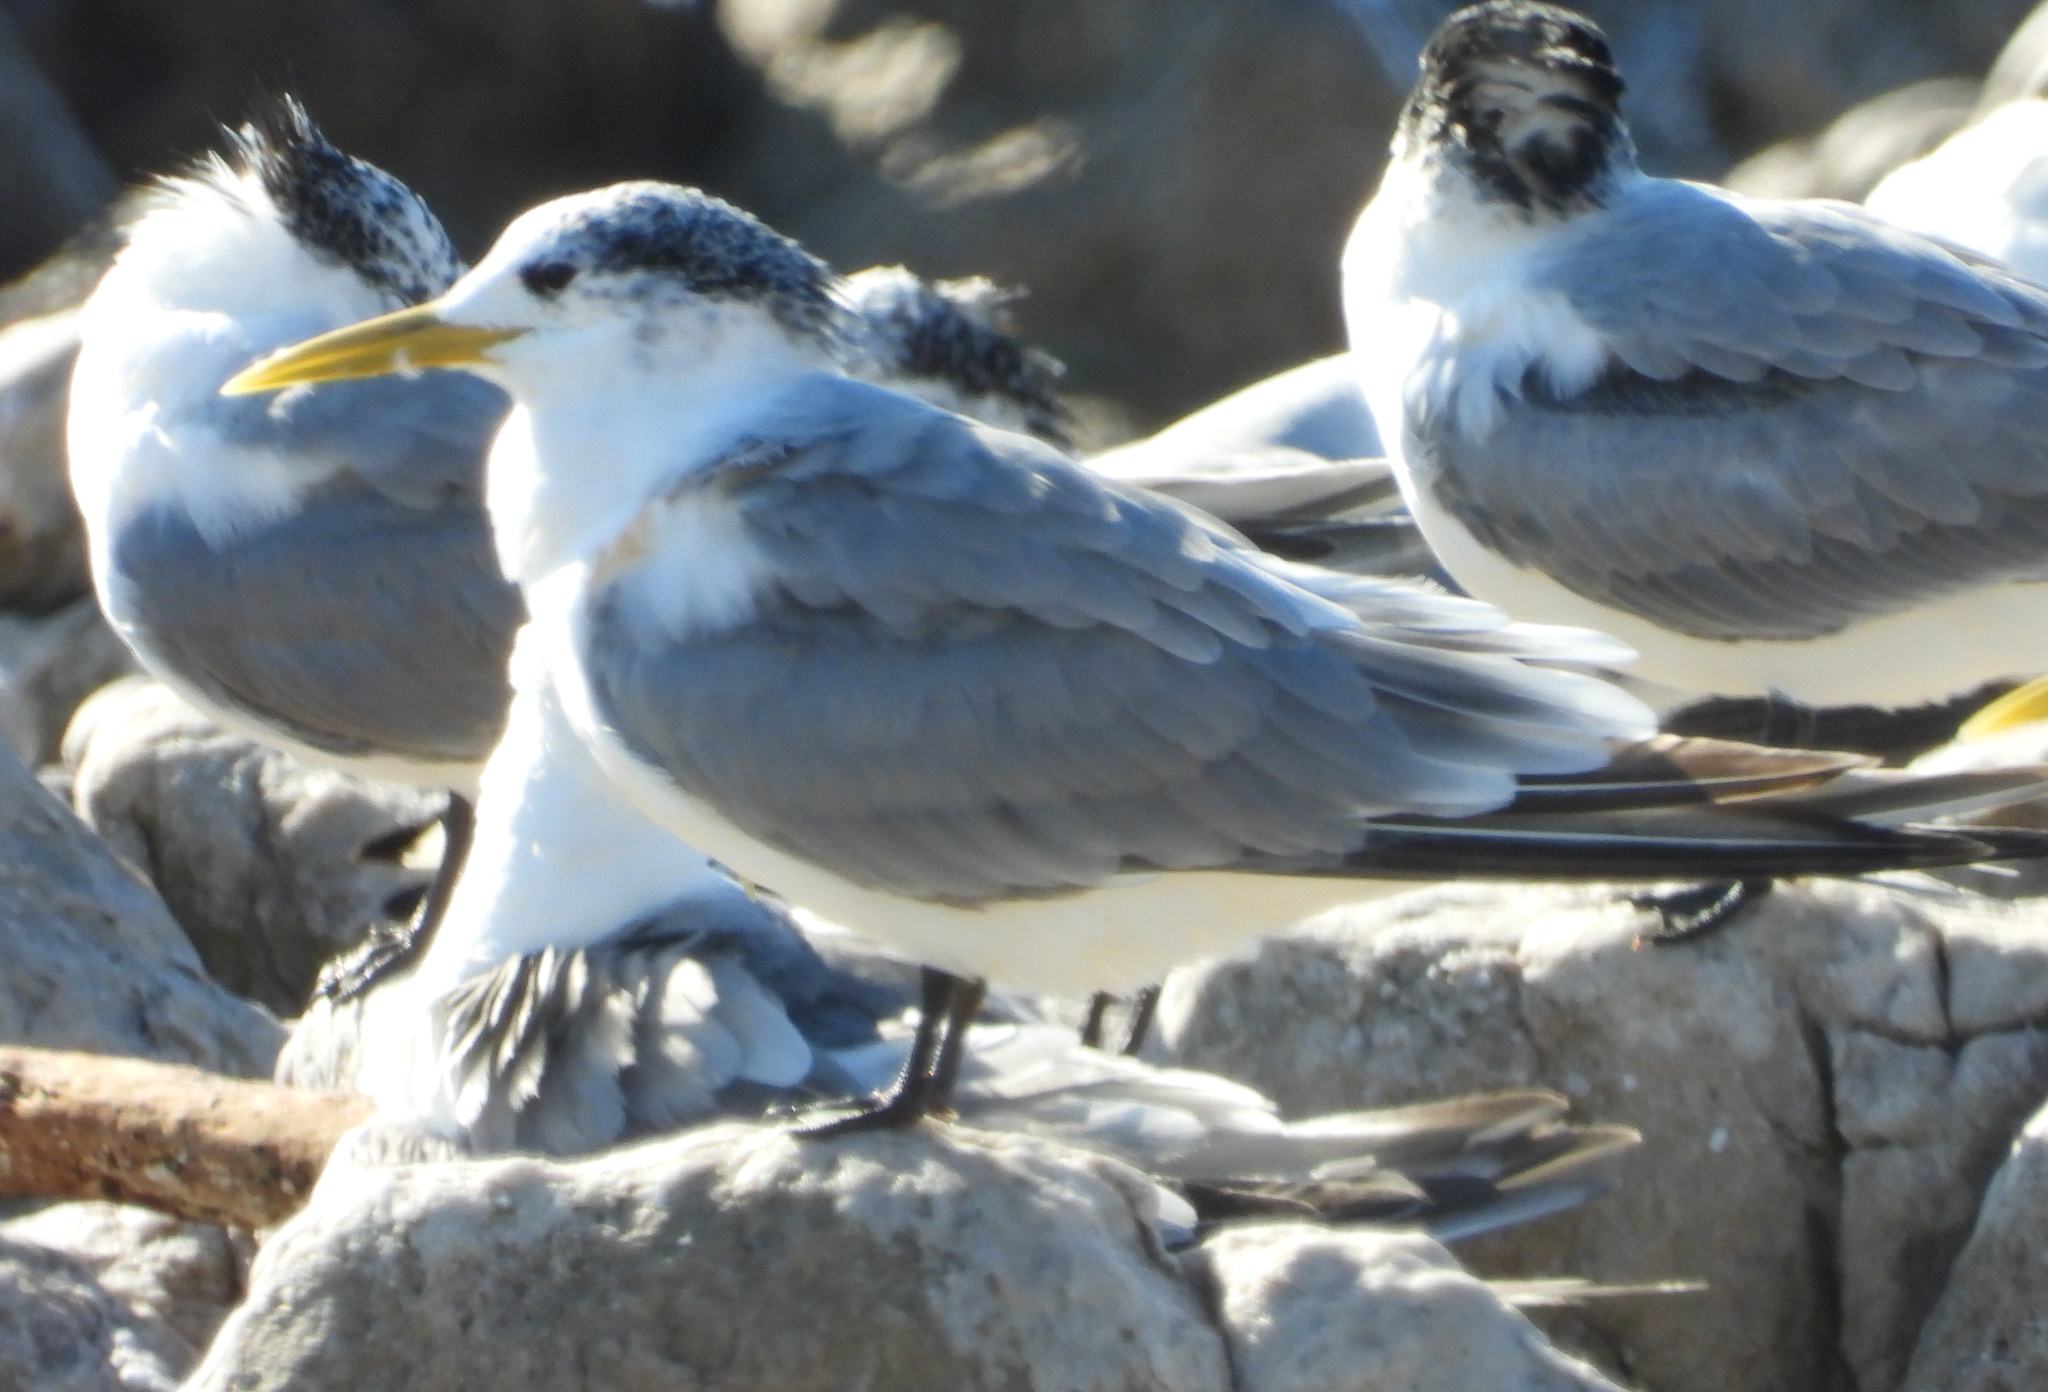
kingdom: Animalia
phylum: Chordata
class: Aves
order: Charadriiformes
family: Laridae
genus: Thalasseus
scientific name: Thalasseus bergii
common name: Greater crested tern
